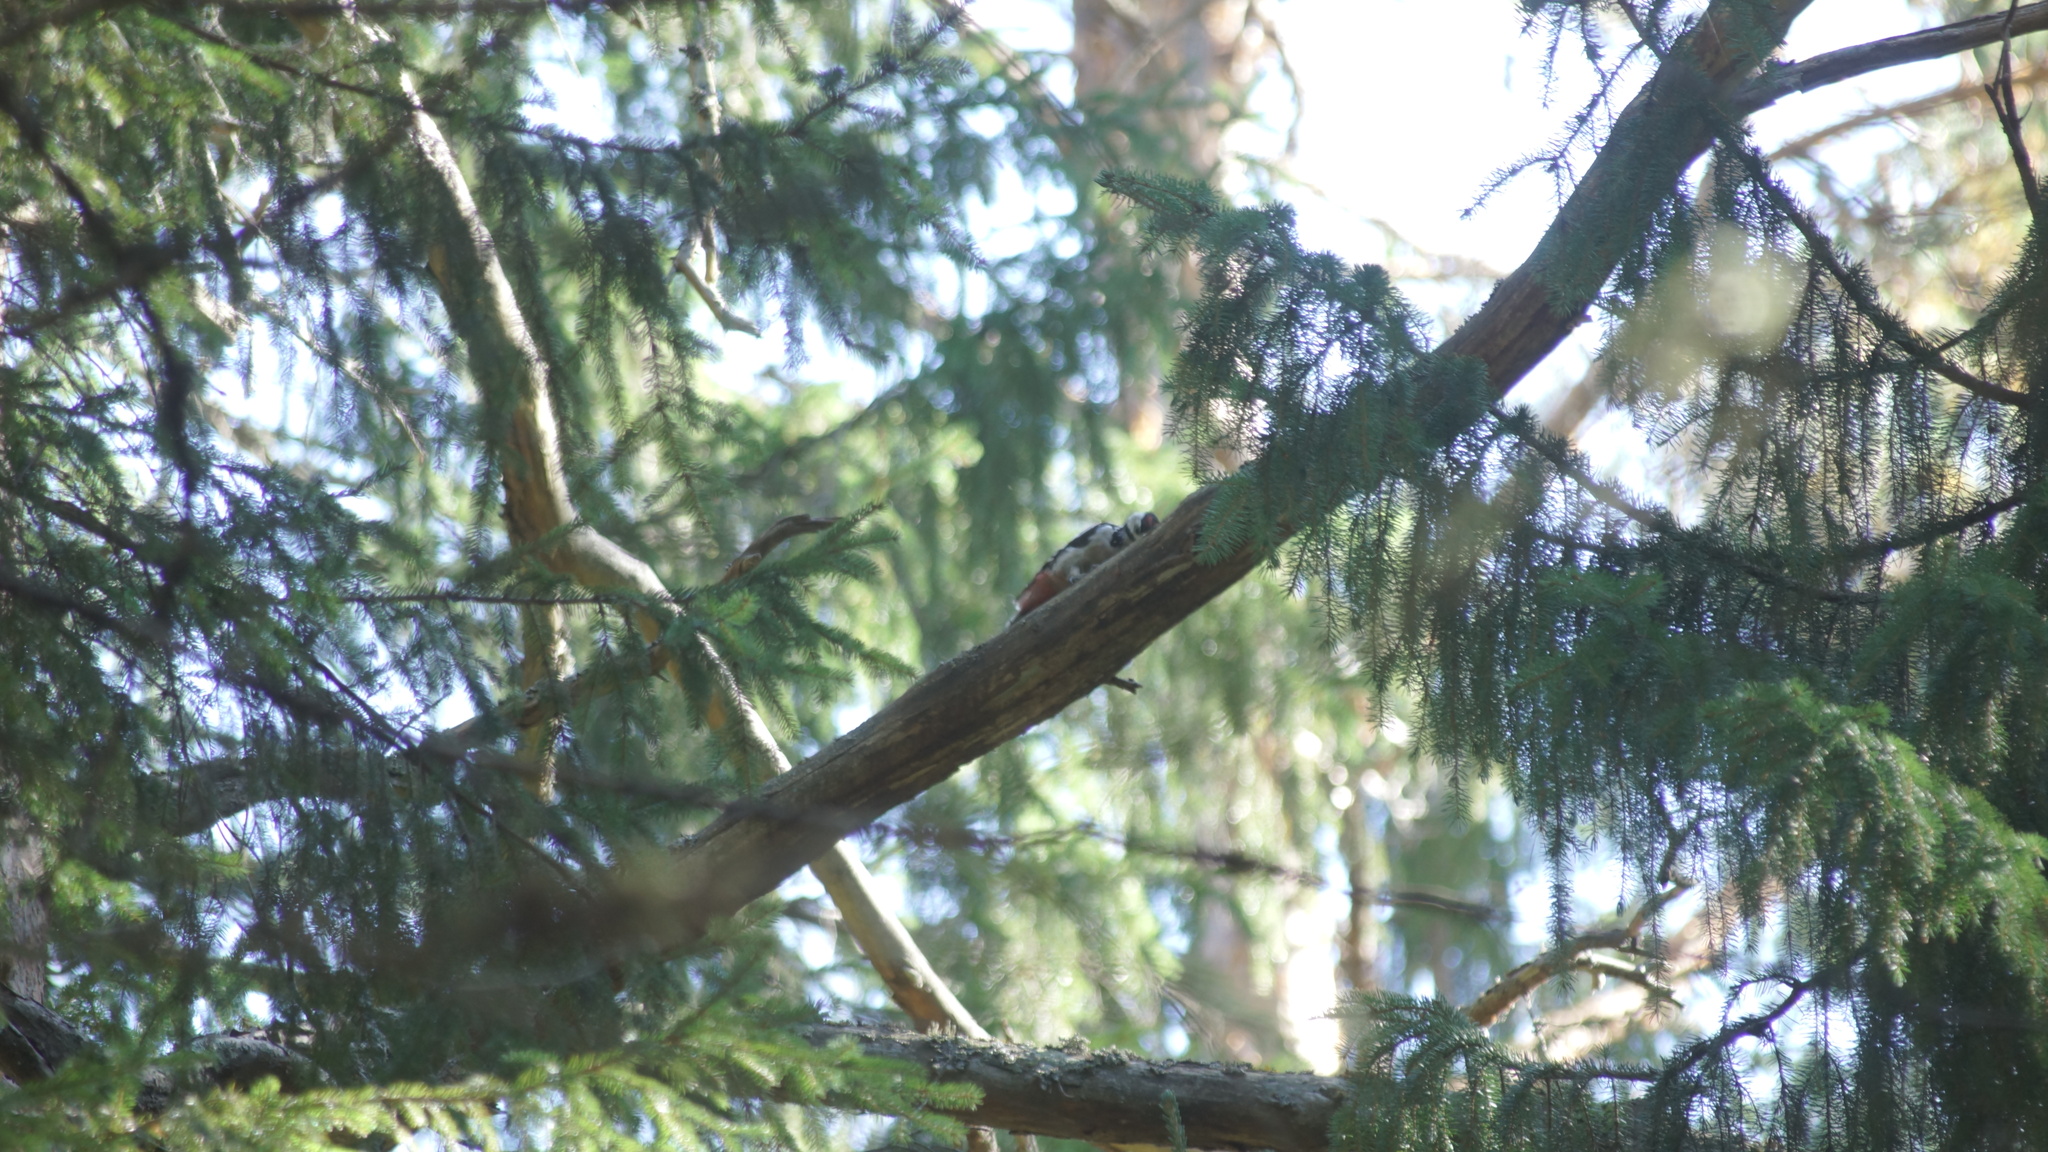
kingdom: Animalia
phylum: Chordata
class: Aves
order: Piciformes
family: Picidae
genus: Dendrocopos
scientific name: Dendrocopos major
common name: Great spotted woodpecker
